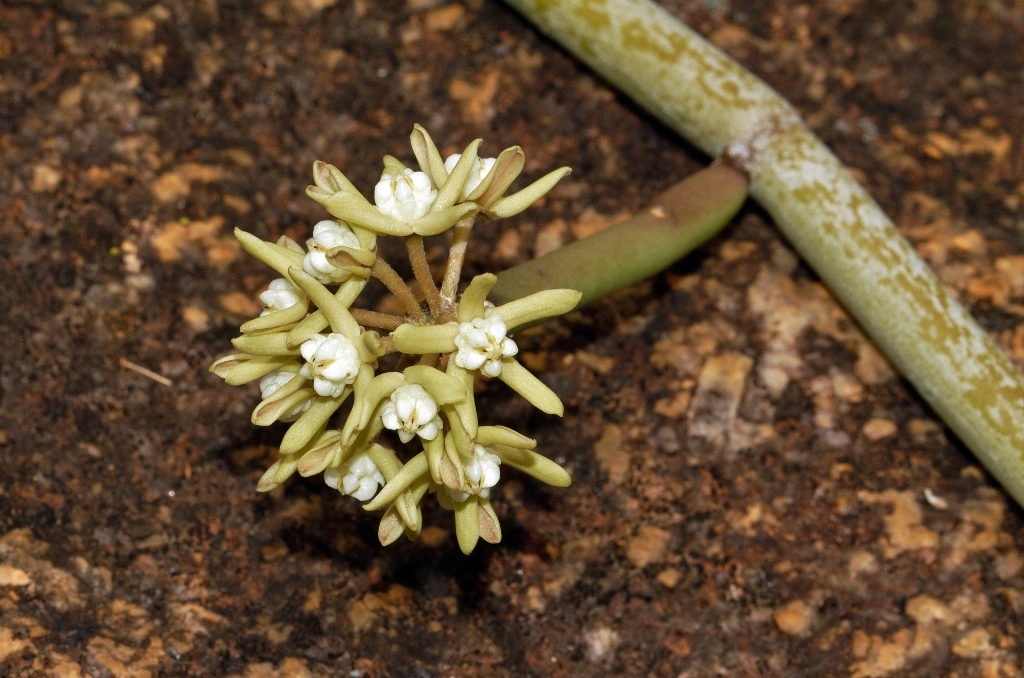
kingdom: Plantae
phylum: Tracheophyta
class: Magnoliopsida
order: Gentianales
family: Apocynaceae
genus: Cynanchum
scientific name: Cynanchum viminale
